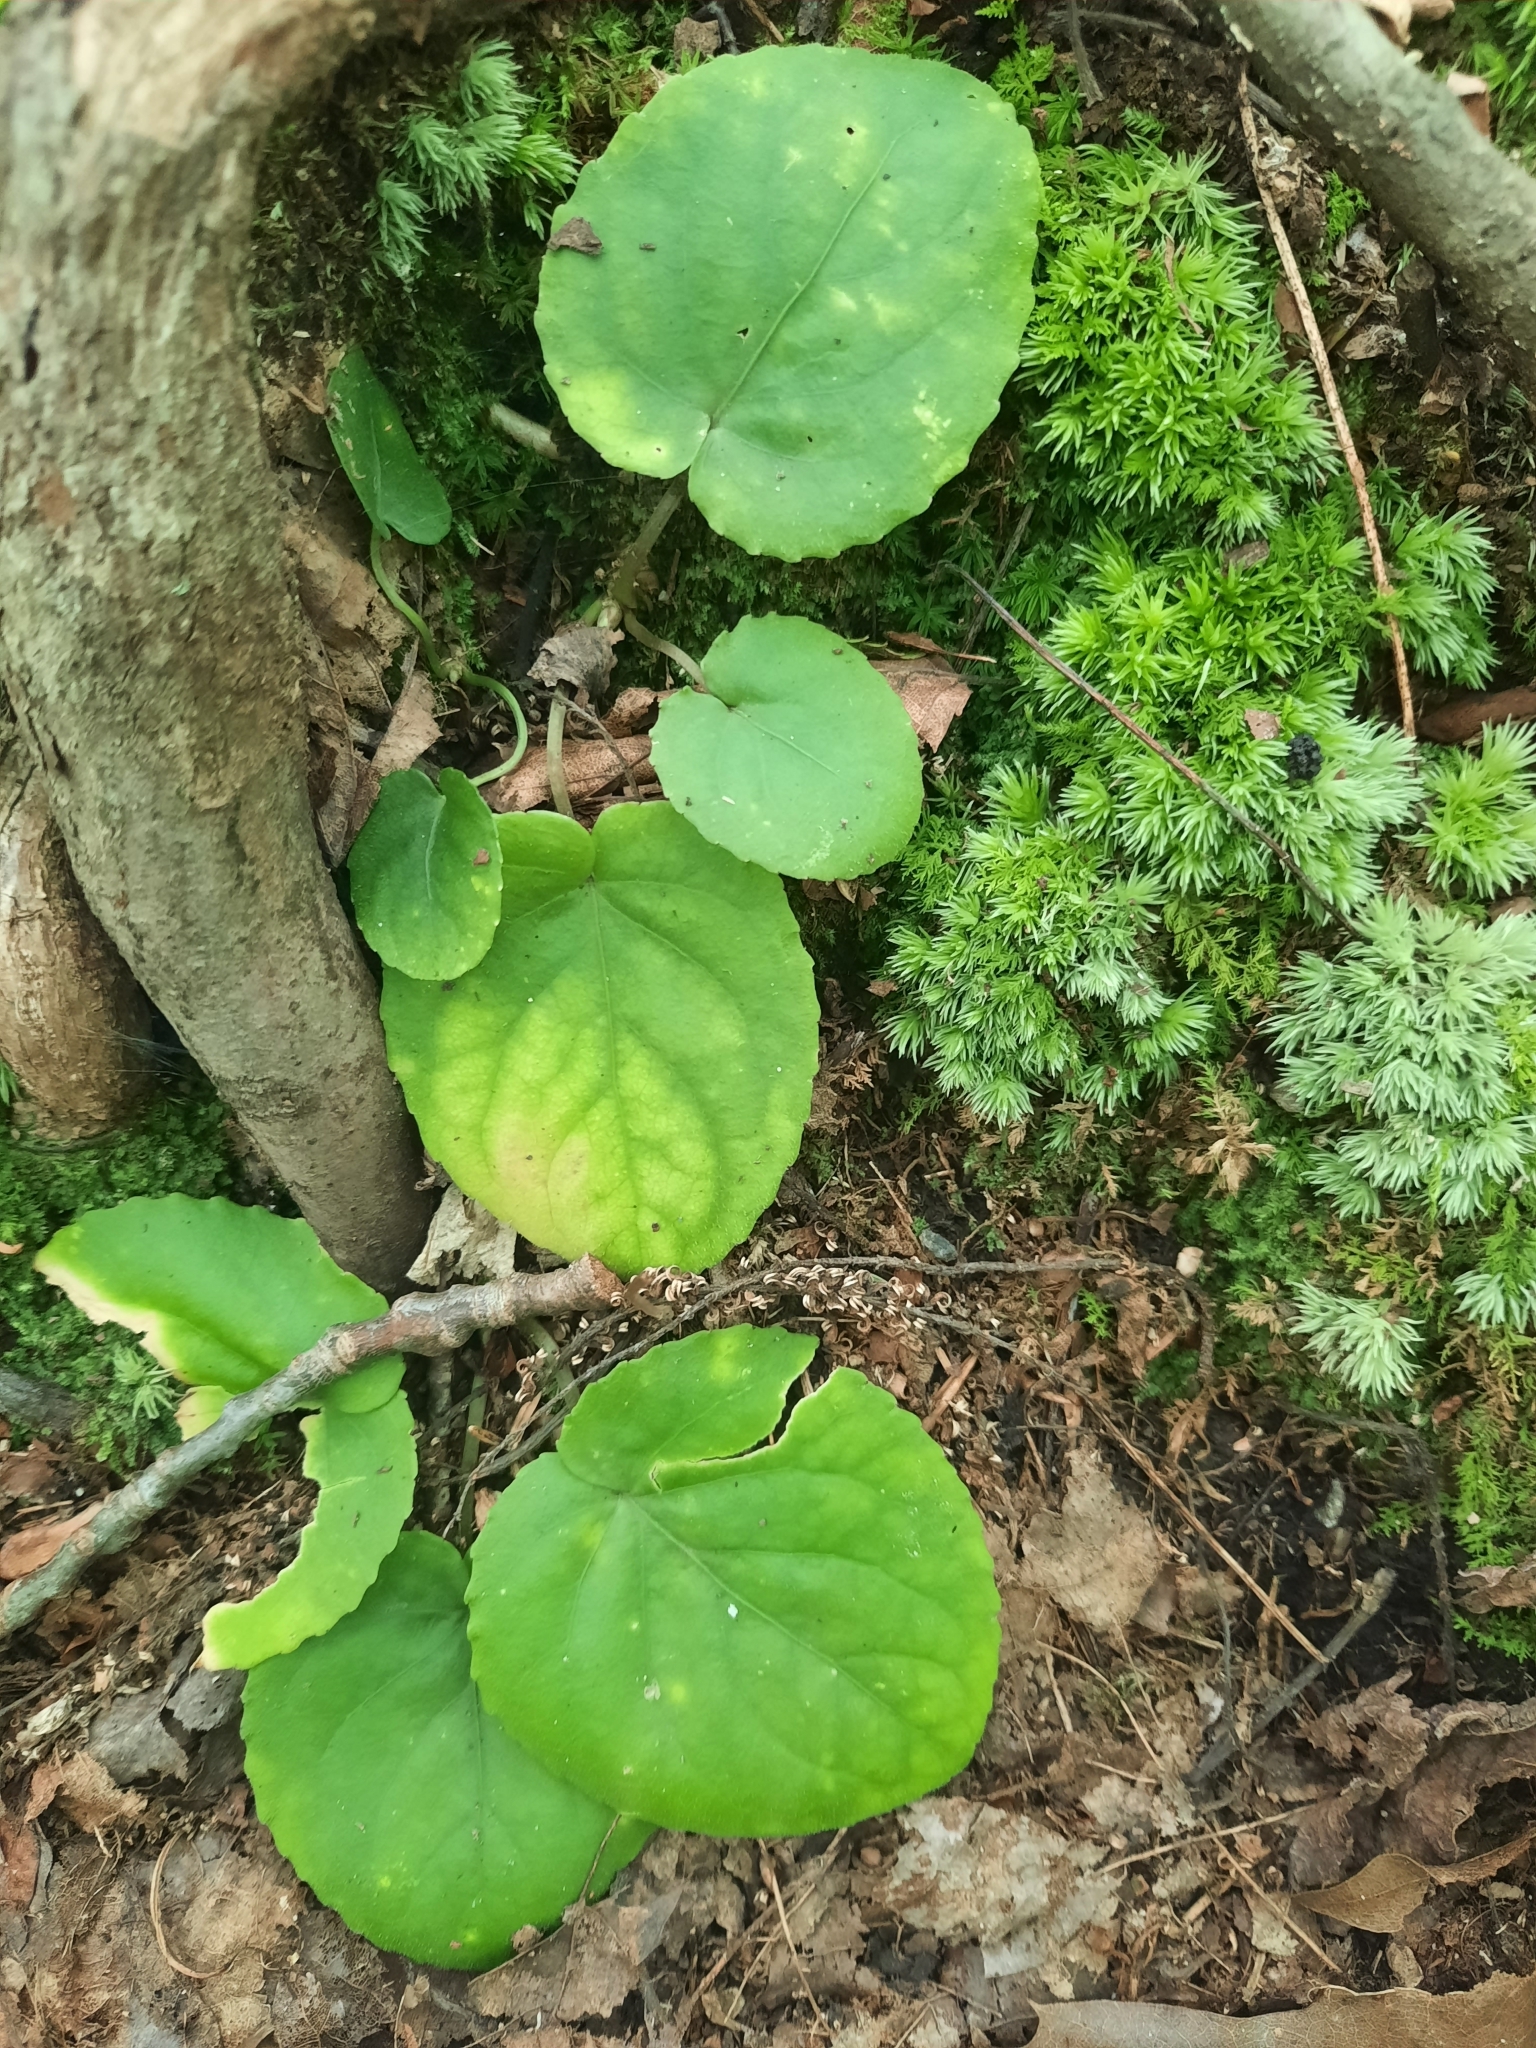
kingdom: Plantae
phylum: Tracheophyta
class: Magnoliopsida
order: Malpighiales
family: Violaceae
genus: Viola
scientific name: Viola rotundifolia
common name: Early yellow violet
